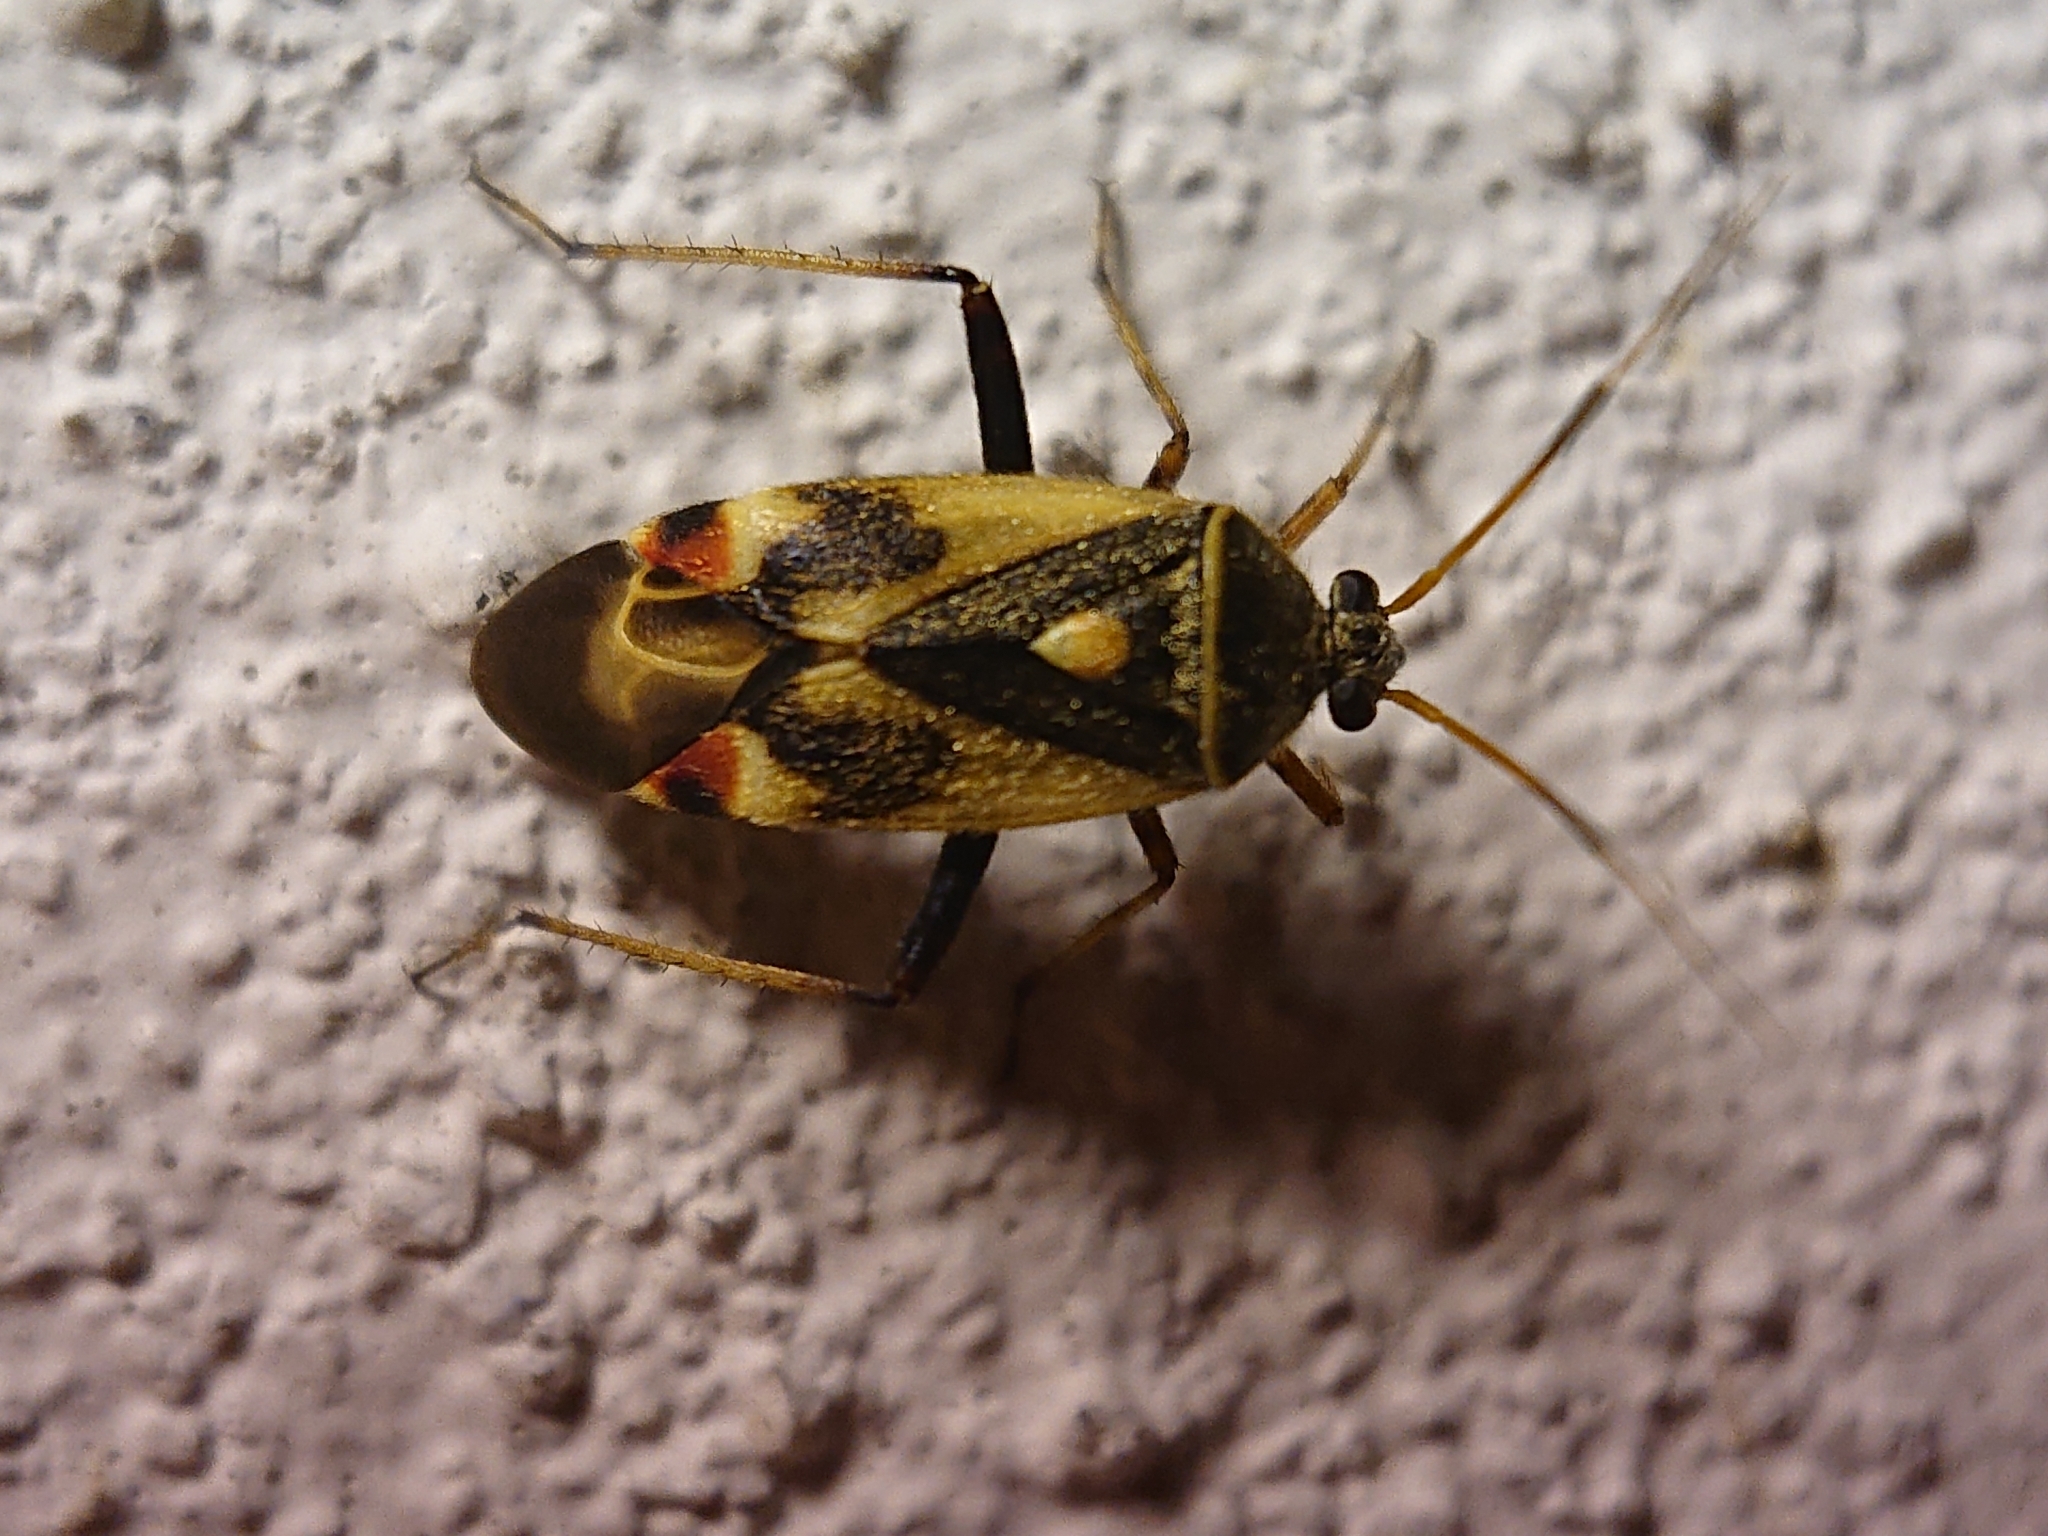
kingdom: Animalia
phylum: Arthropoda
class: Insecta
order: Hemiptera
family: Miridae
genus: Polymerus
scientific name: Polymerus unifasciatus
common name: Plant bug
